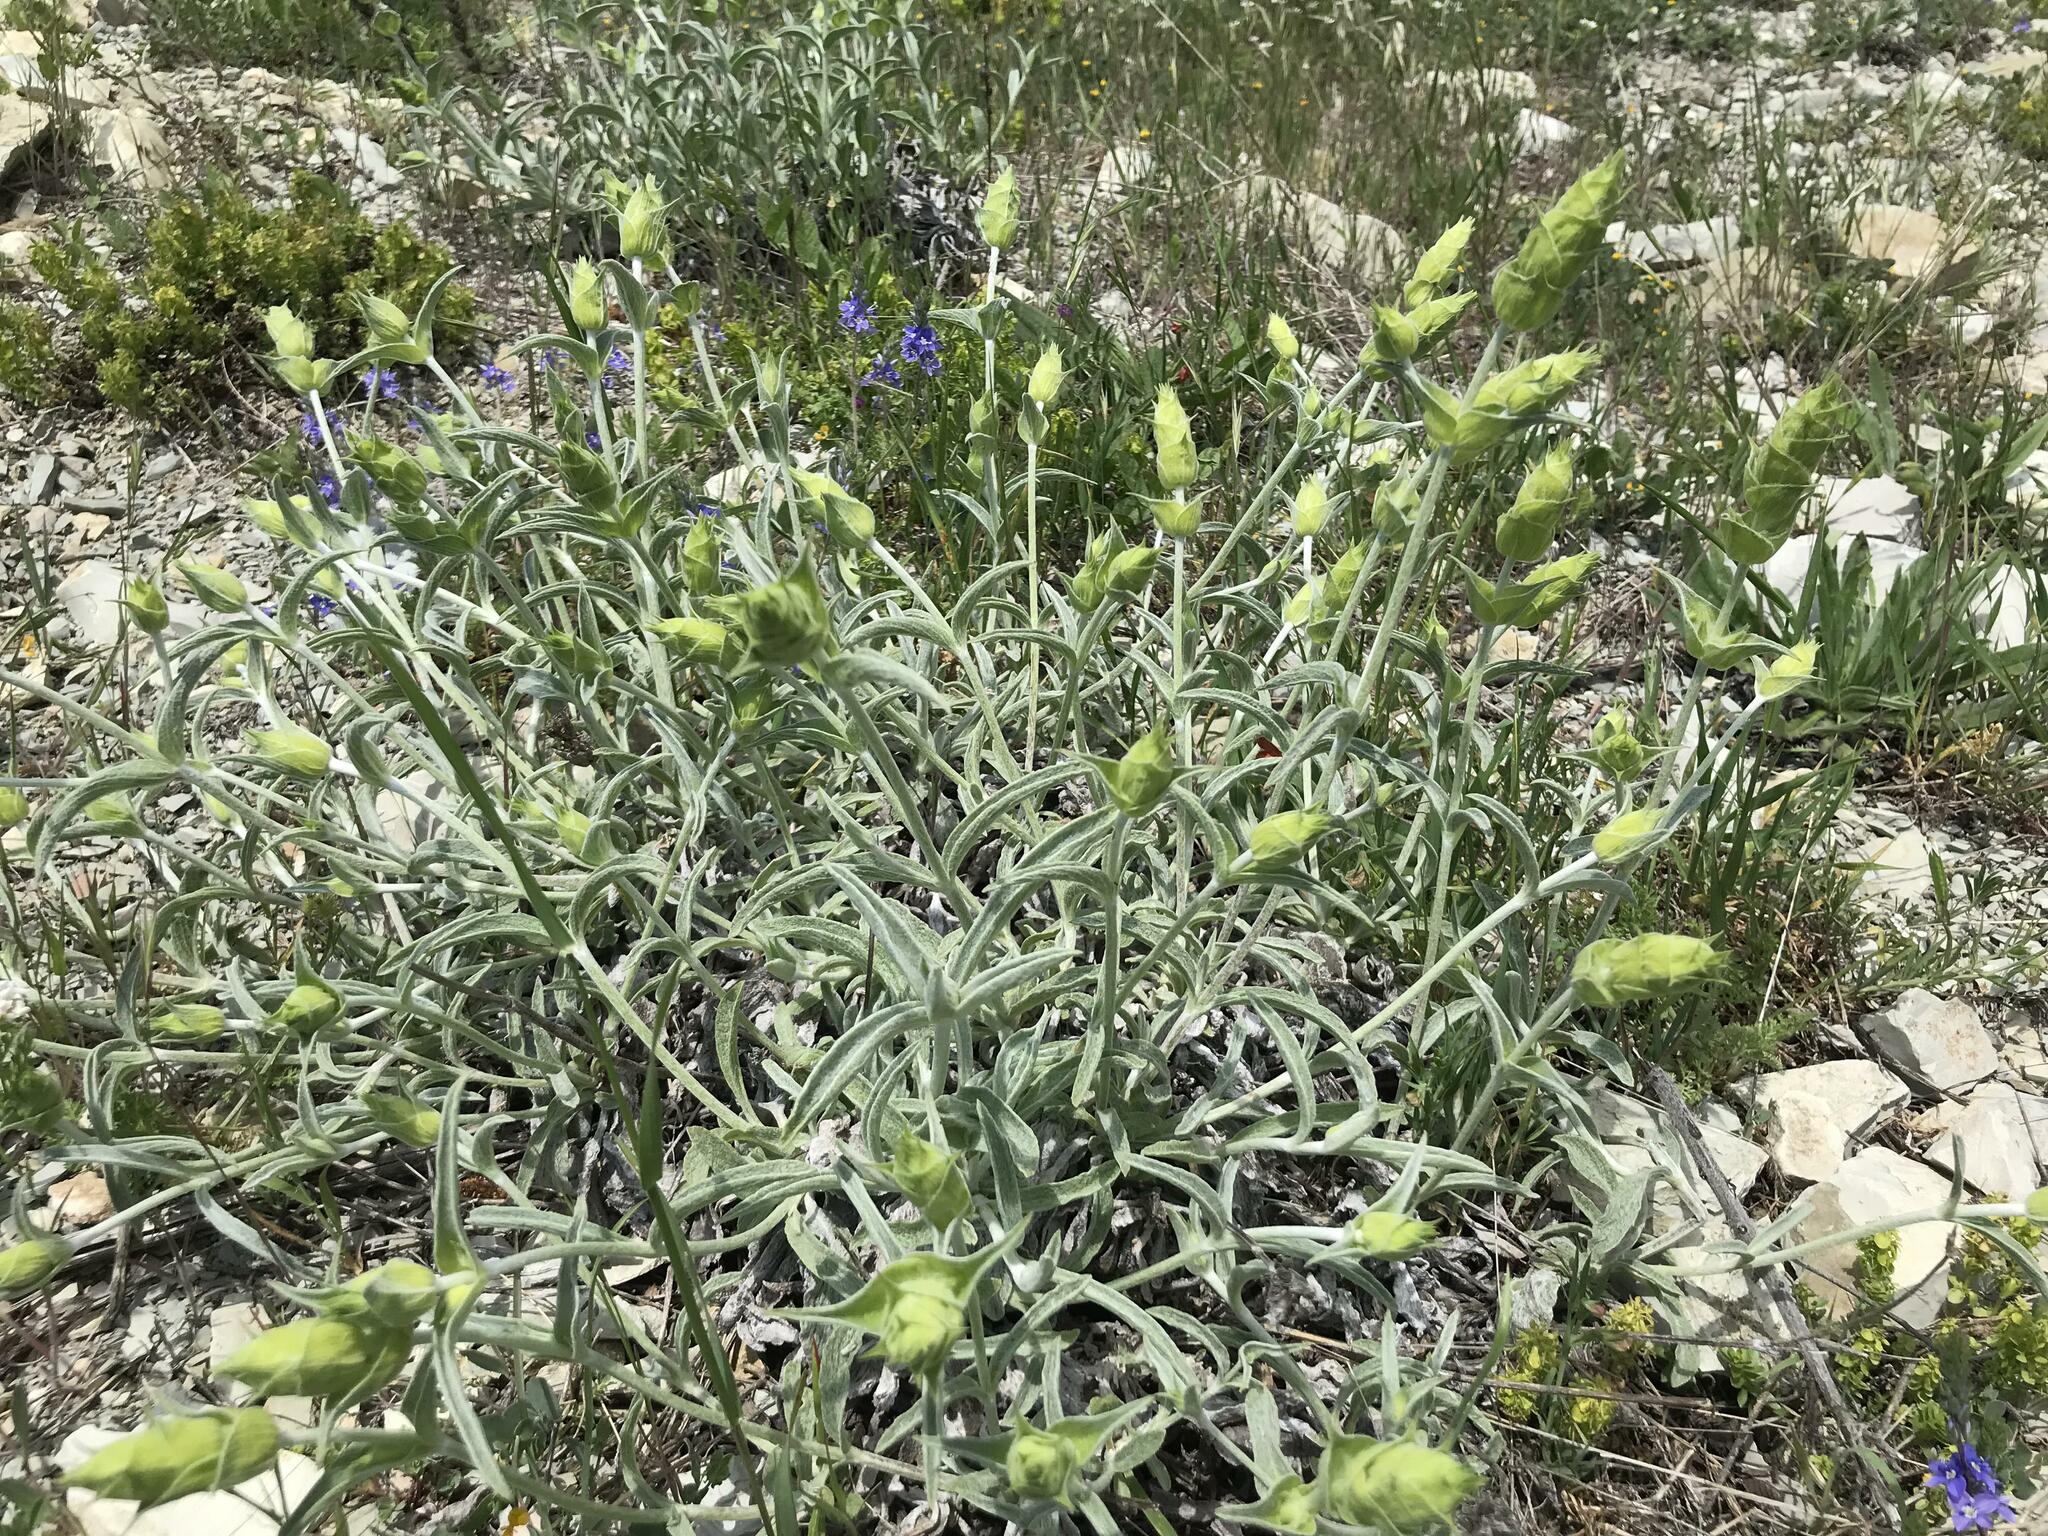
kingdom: Plantae
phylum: Tracheophyta
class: Magnoliopsida
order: Lamiales
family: Lamiaceae
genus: Sideritis
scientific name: Sideritis euxina
